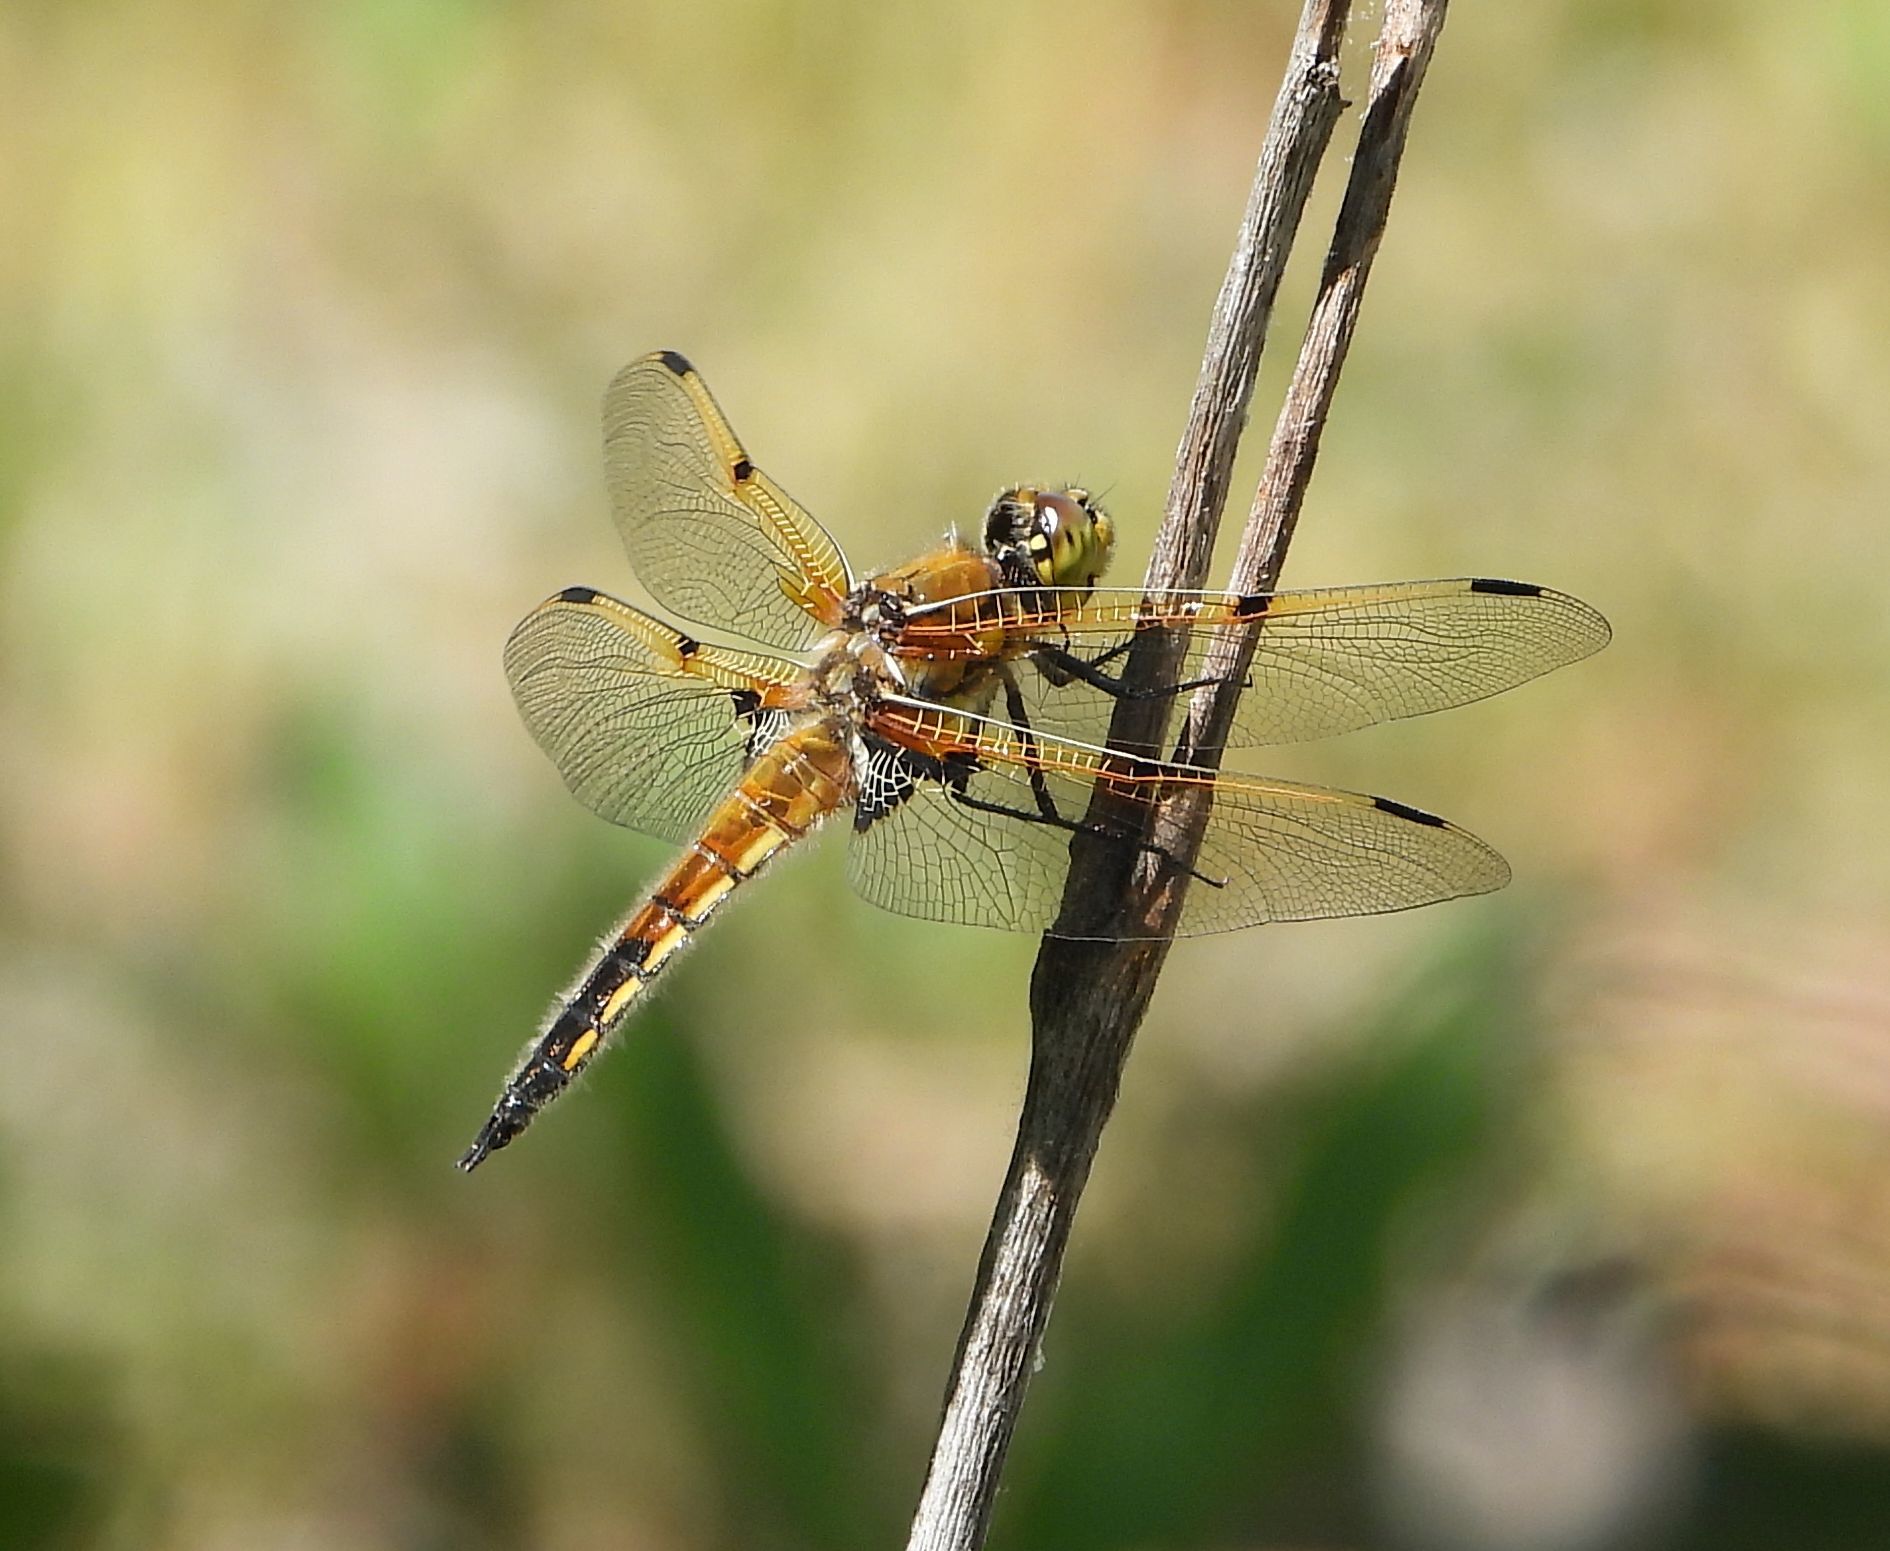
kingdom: Animalia
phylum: Arthropoda
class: Insecta
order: Odonata
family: Libellulidae
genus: Libellula
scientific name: Libellula quadrimaculata
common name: Four-spotted chaser
